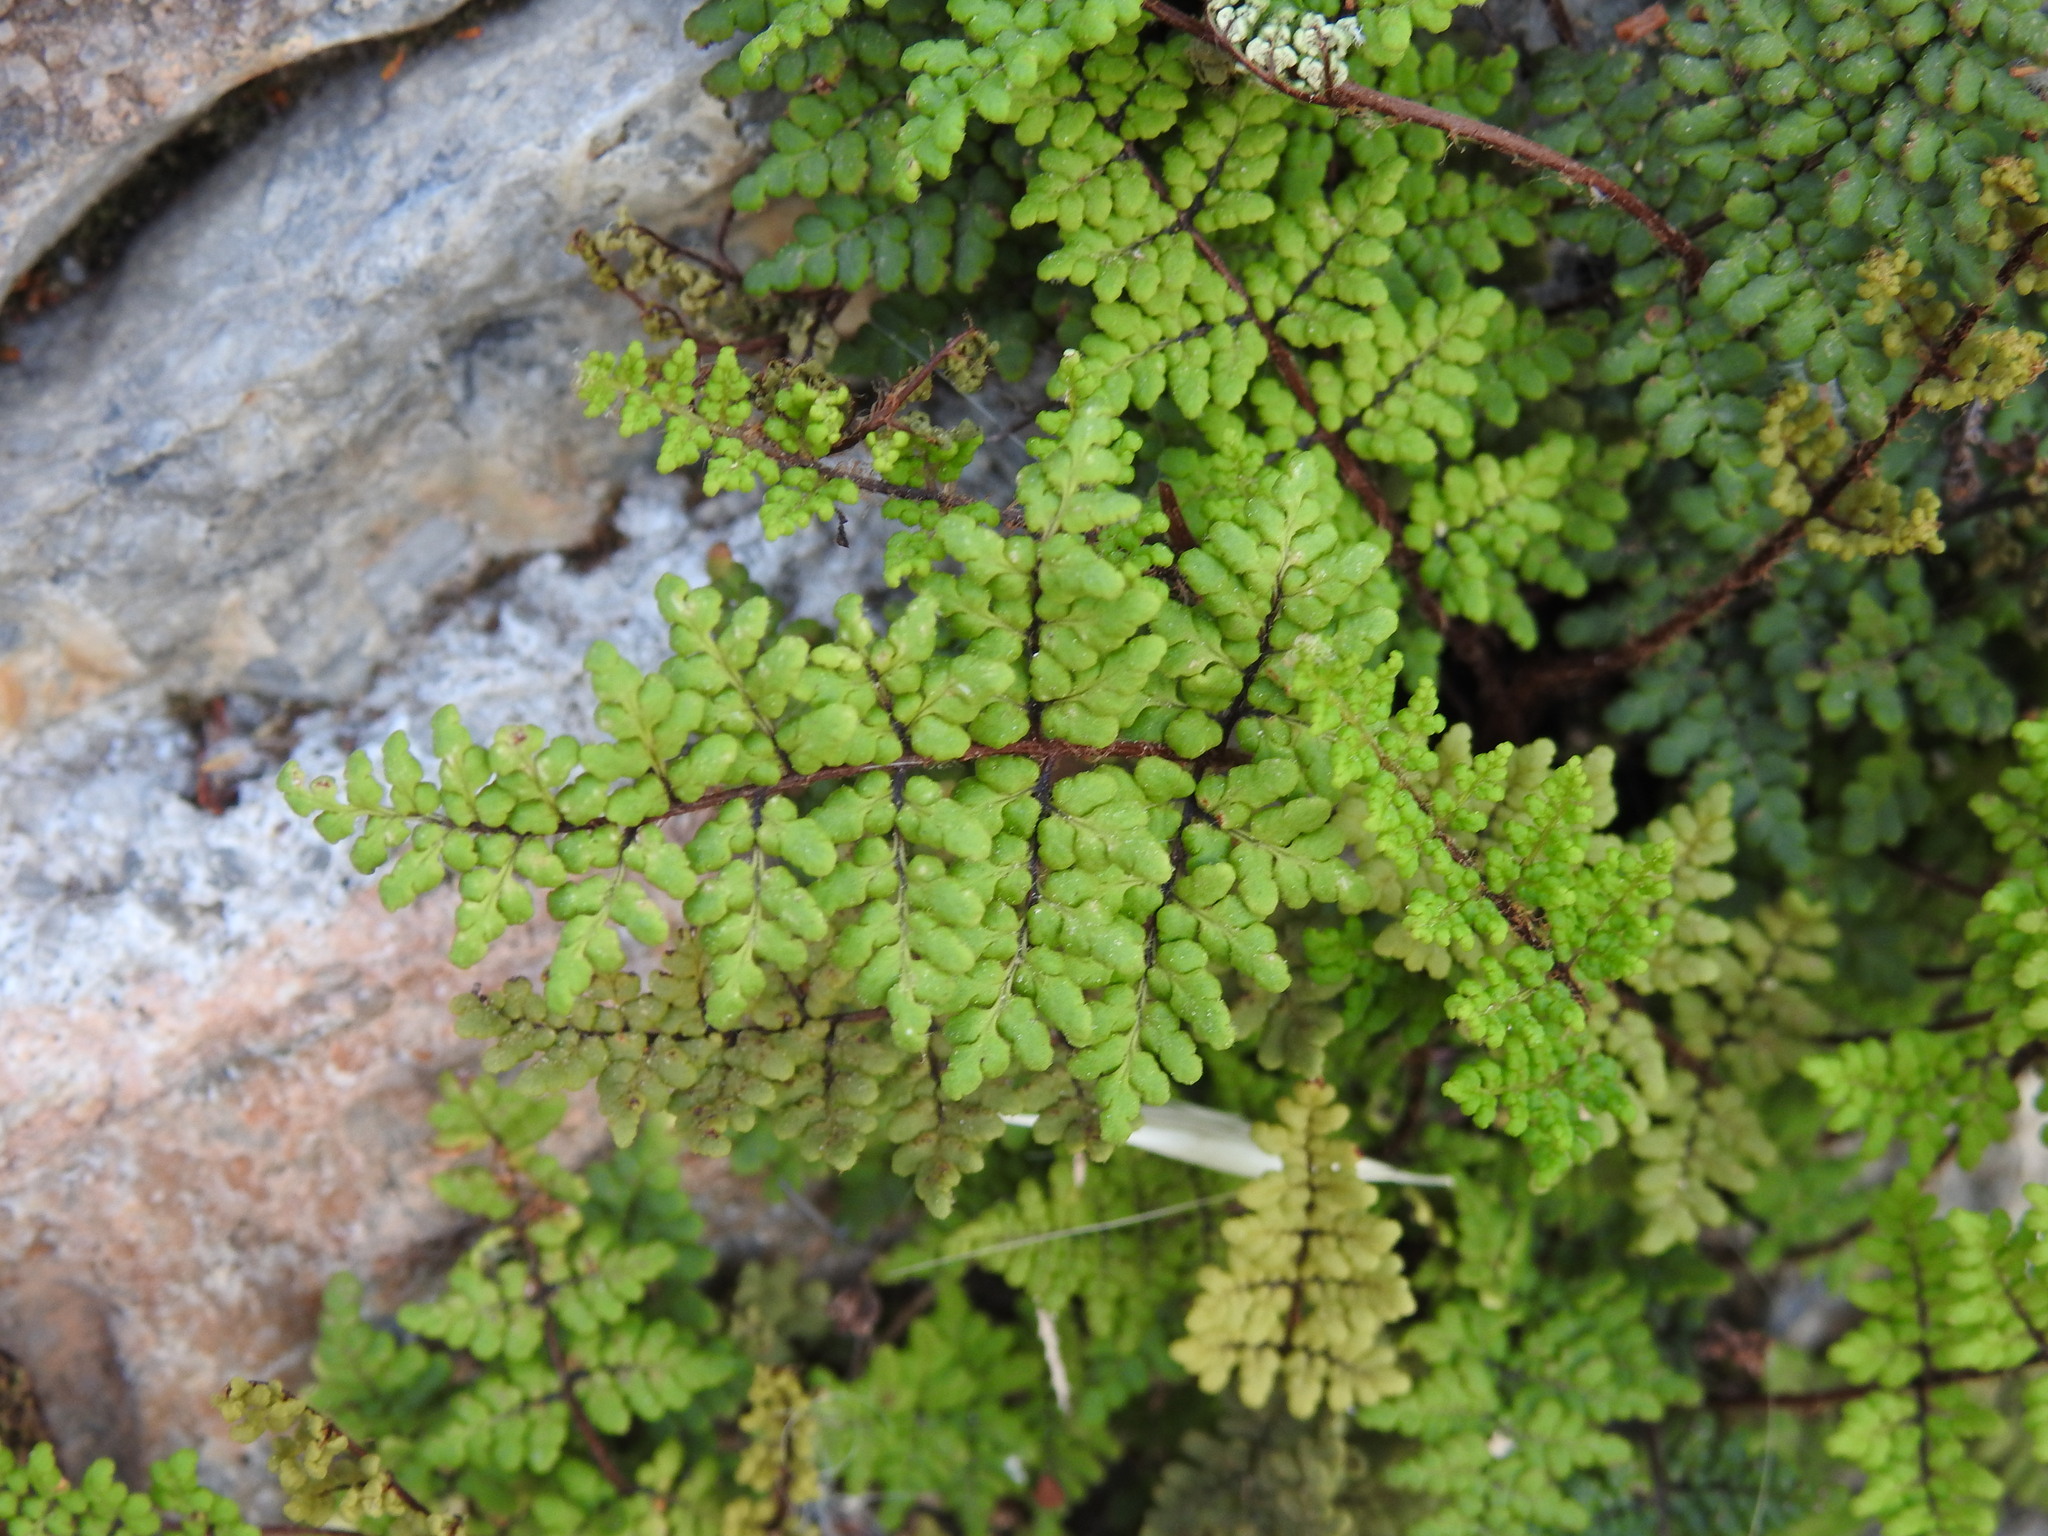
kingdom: Plantae
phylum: Tracheophyta
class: Polypodiopsida
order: Polypodiales
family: Pteridaceae
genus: Oeosporangium
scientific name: Oeosporangium pteridioides
